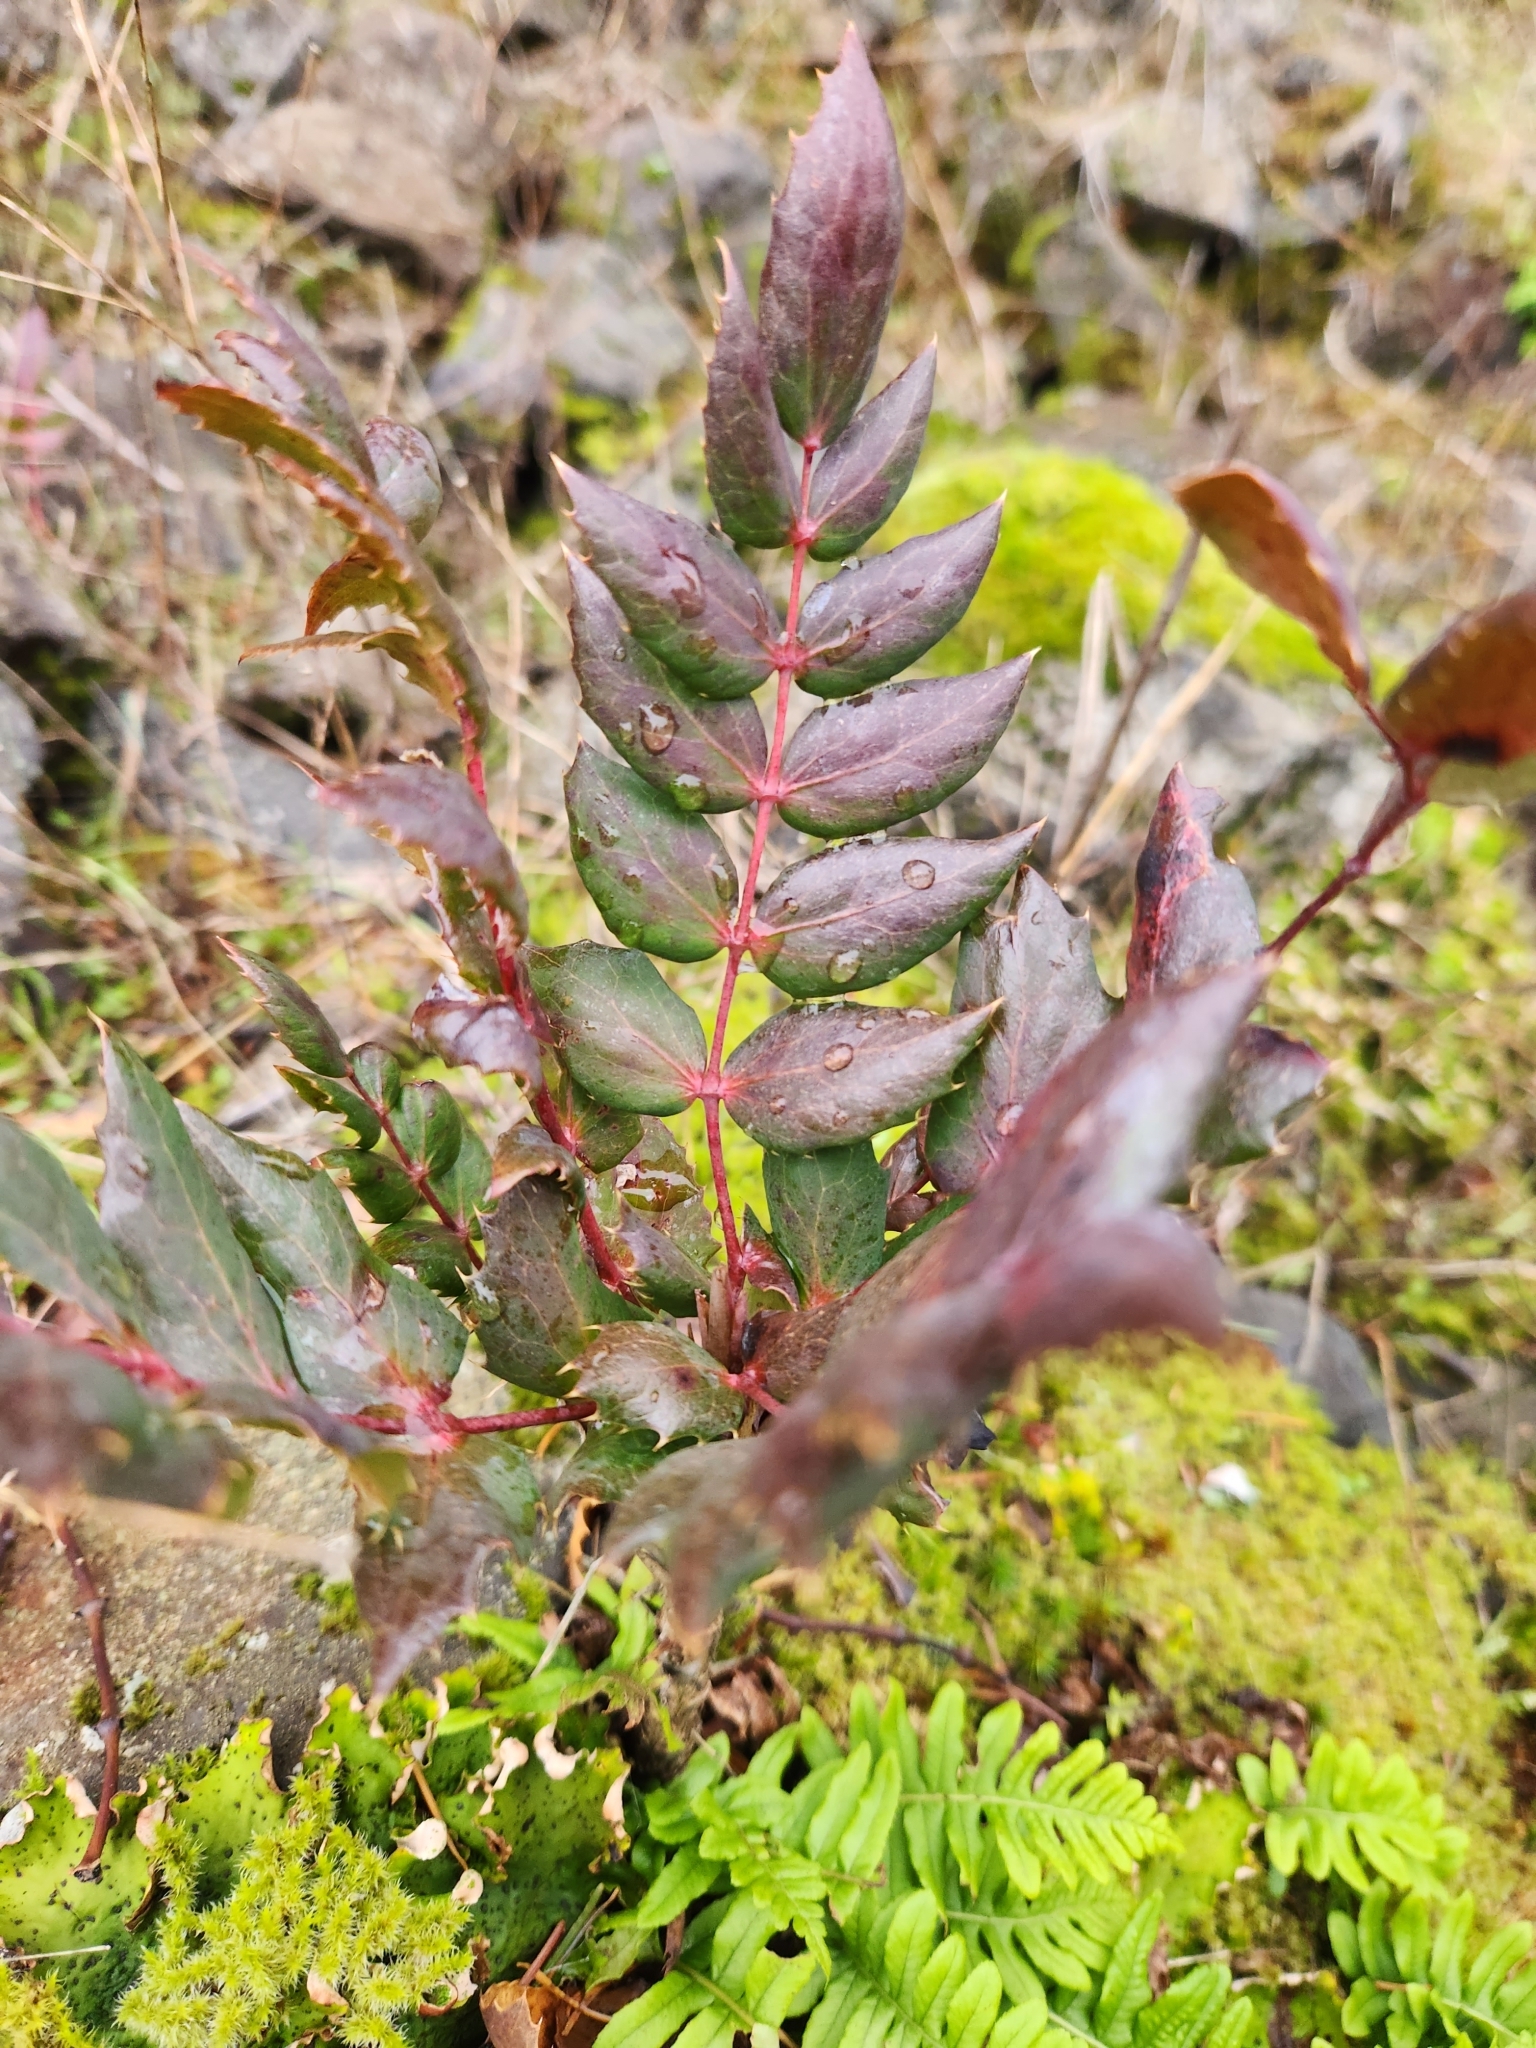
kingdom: Plantae
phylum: Tracheophyta
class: Magnoliopsida
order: Ranunculales
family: Berberidaceae
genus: Mahonia
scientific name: Mahonia nervosa
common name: Cascade oregon-grape
